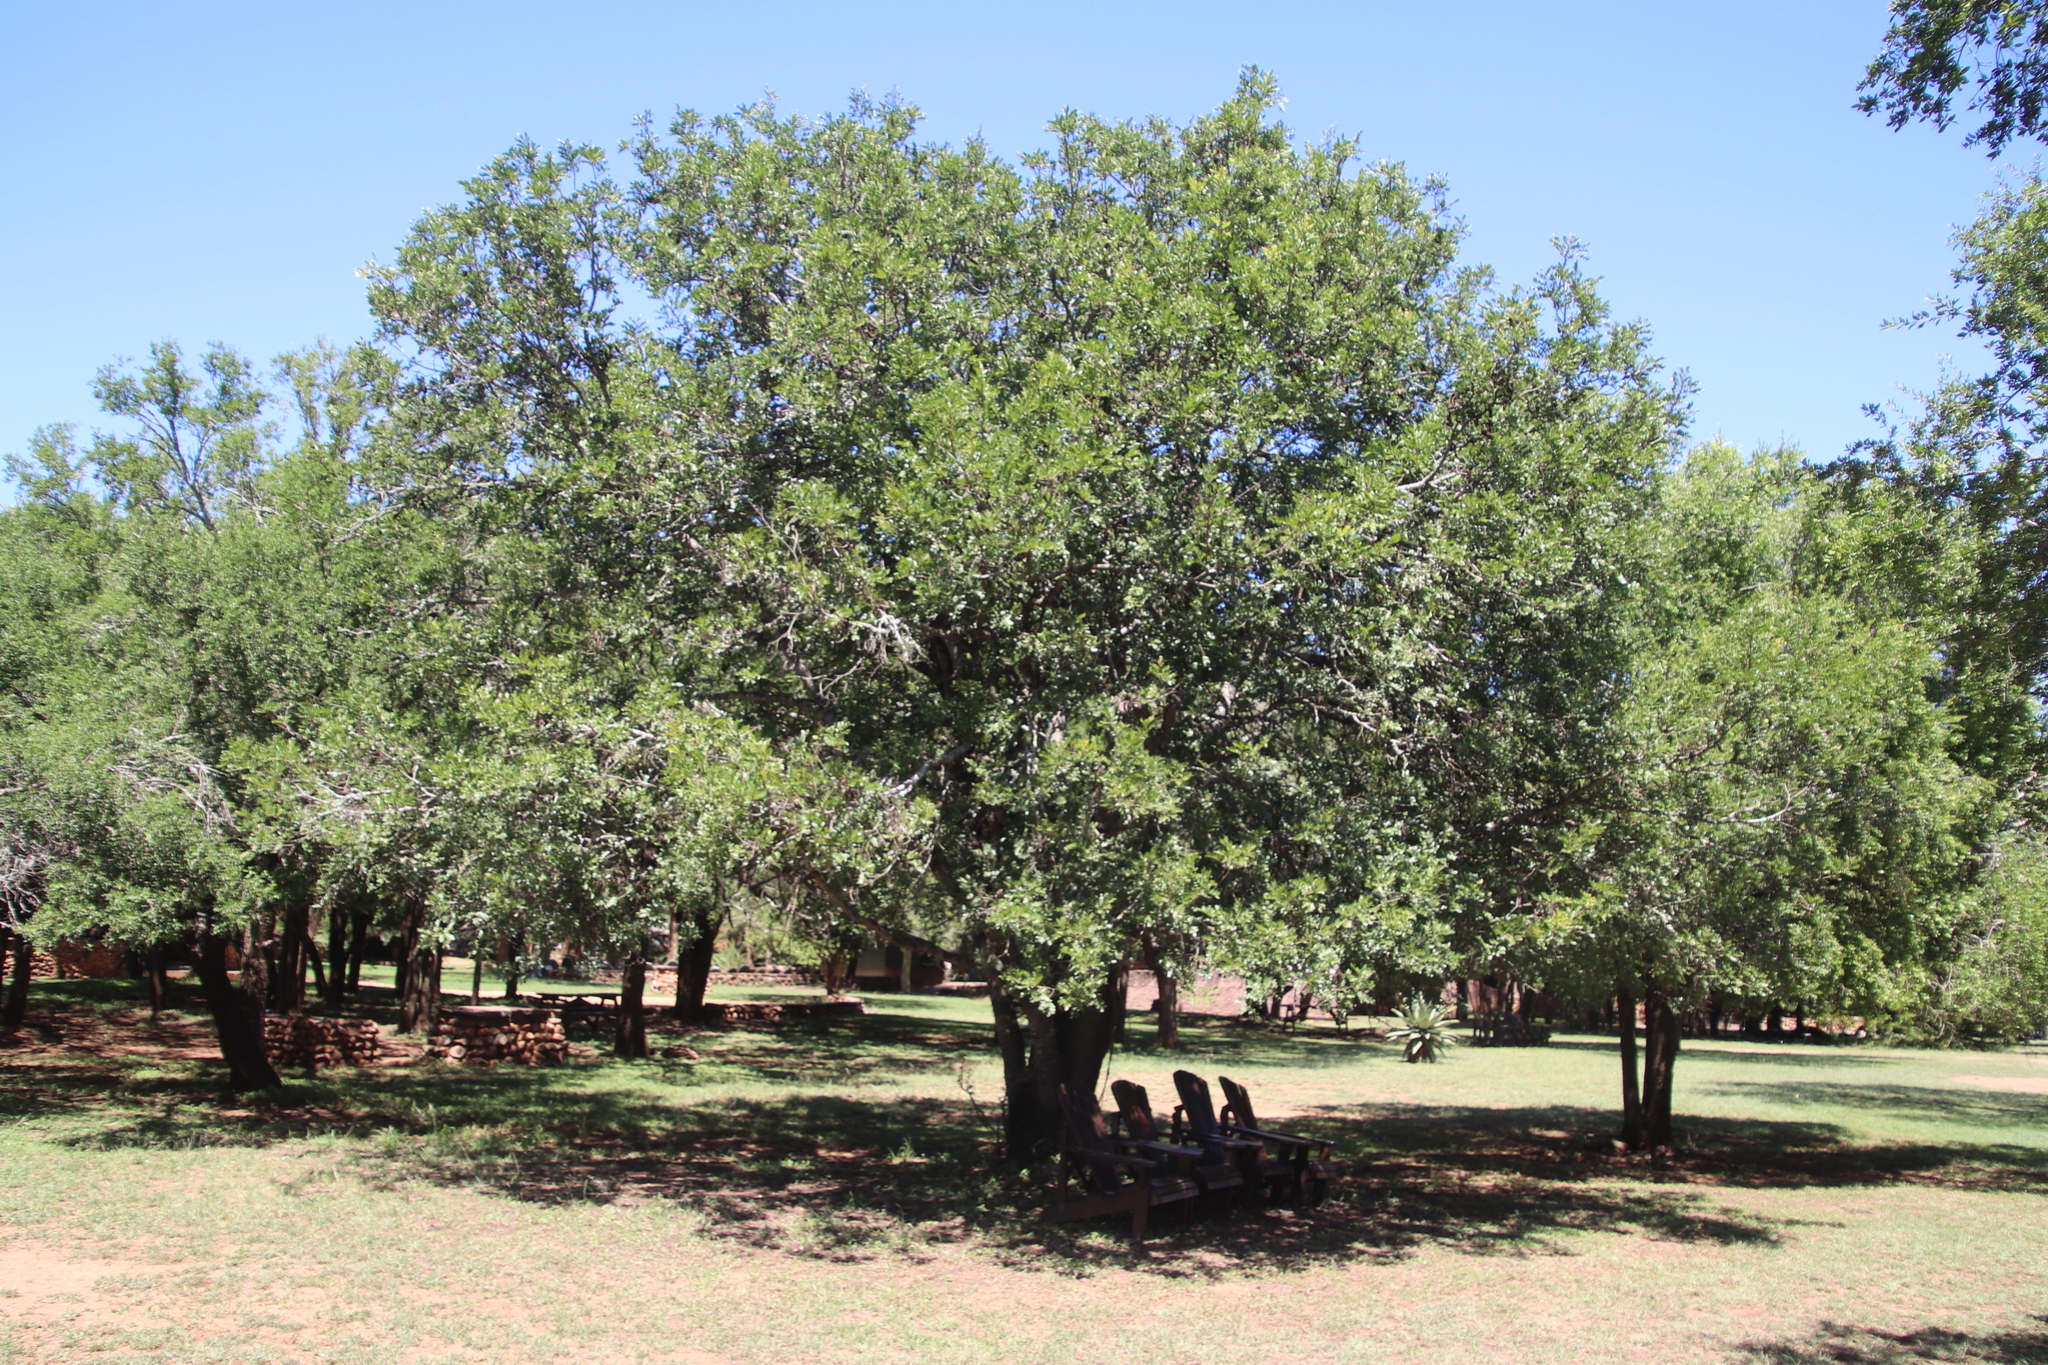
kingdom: Plantae
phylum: Tracheophyta
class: Magnoliopsida
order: Fabales
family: Fabaceae
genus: Schotia
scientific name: Schotia brachypetala
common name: Weeping boer-bean
